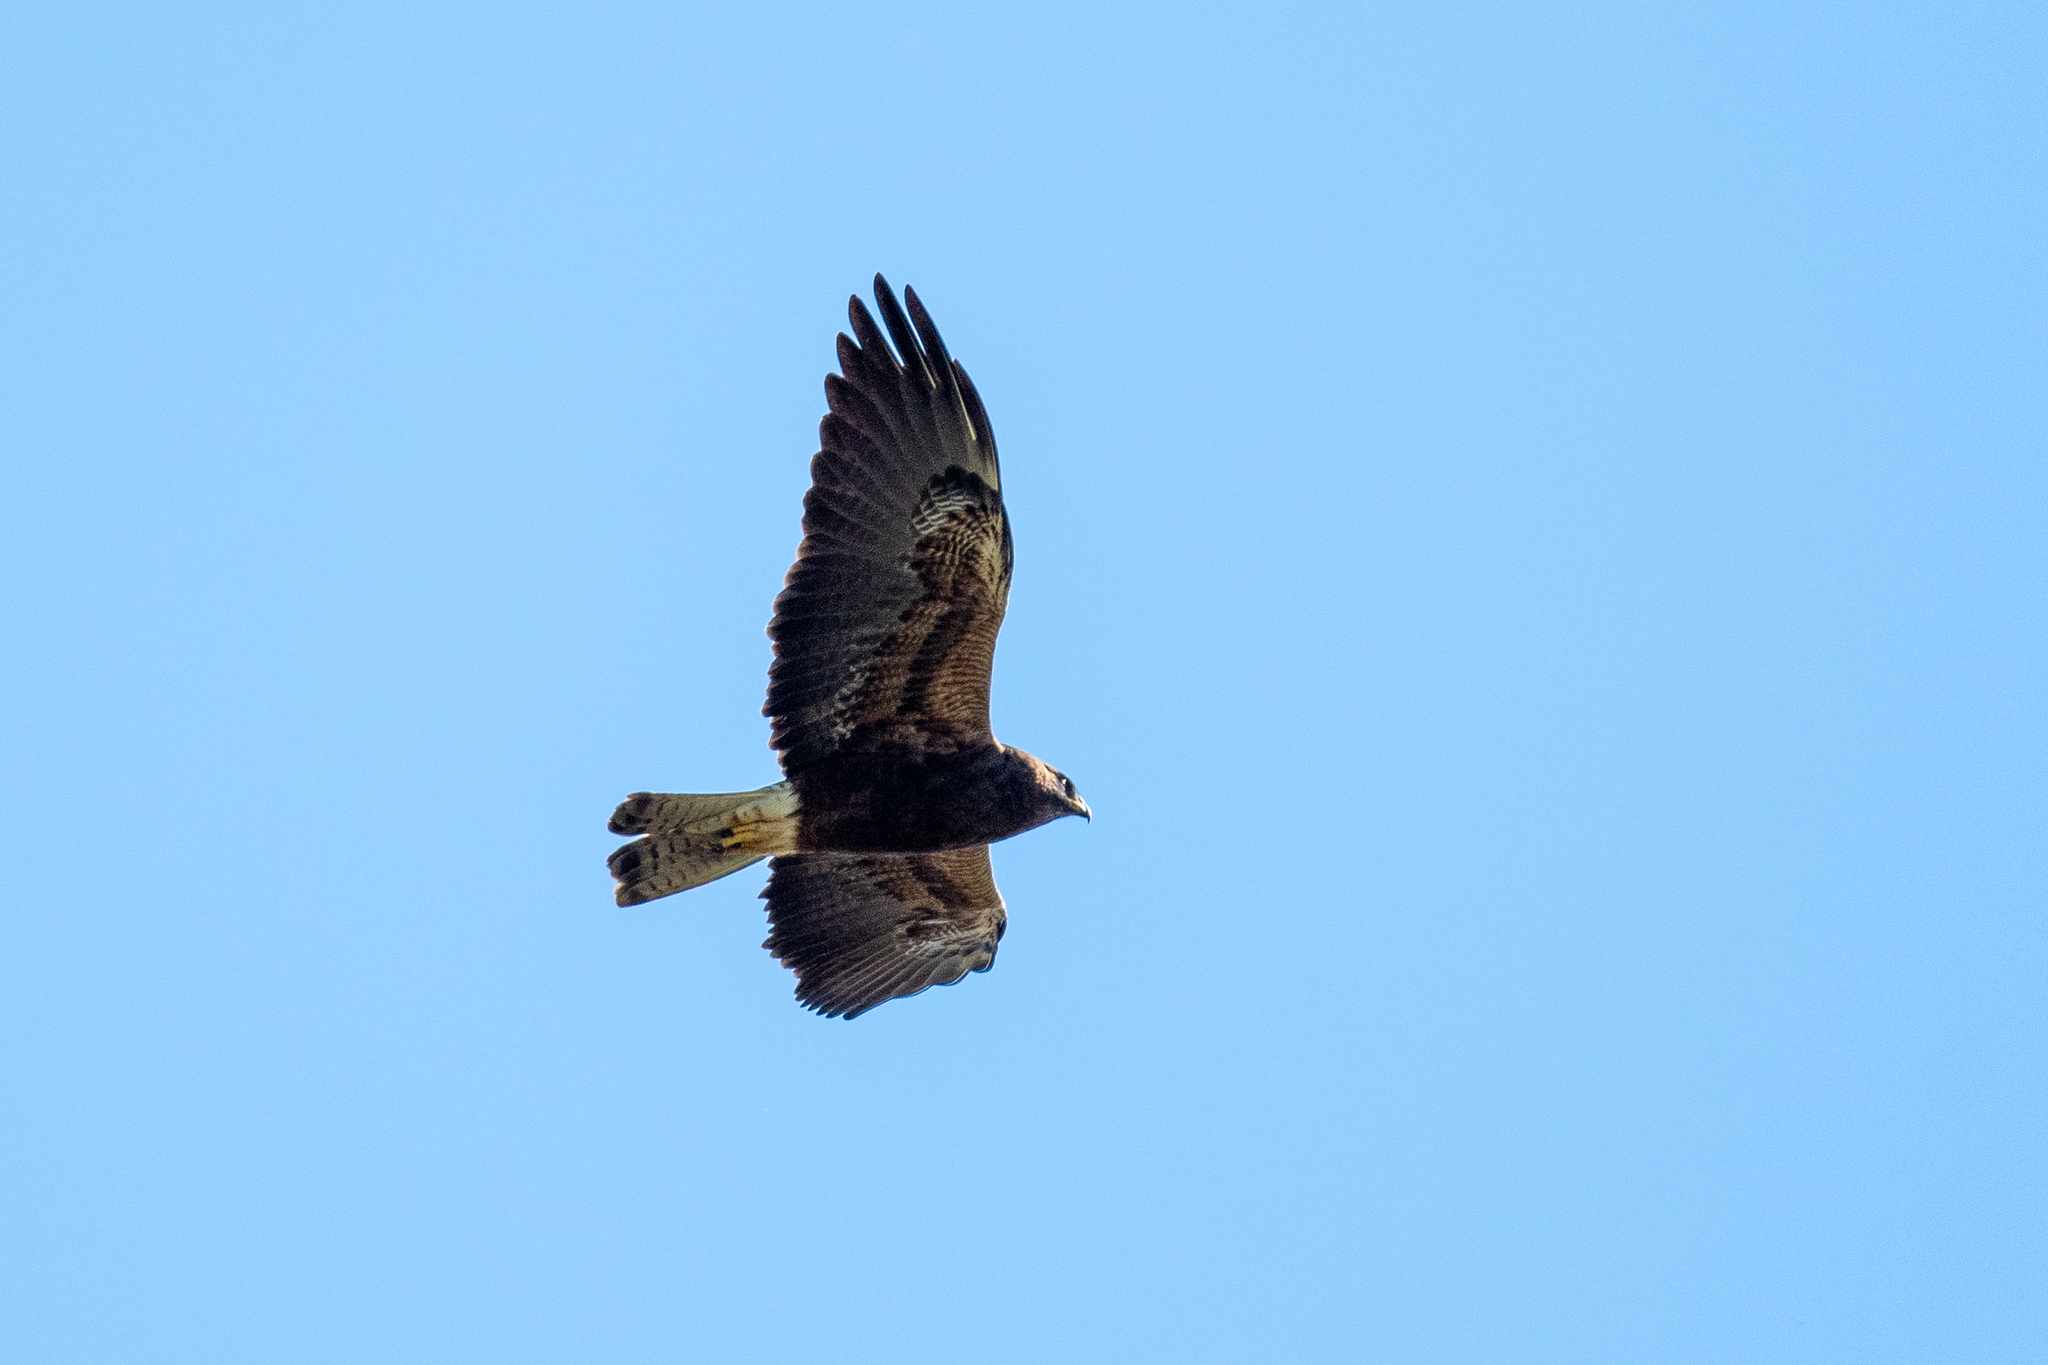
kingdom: Animalia
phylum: Chordata
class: Aves
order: Accipitriformes
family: Accipitridae
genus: Buteo
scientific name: Buteo swainsoni
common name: Swainson's hawk
